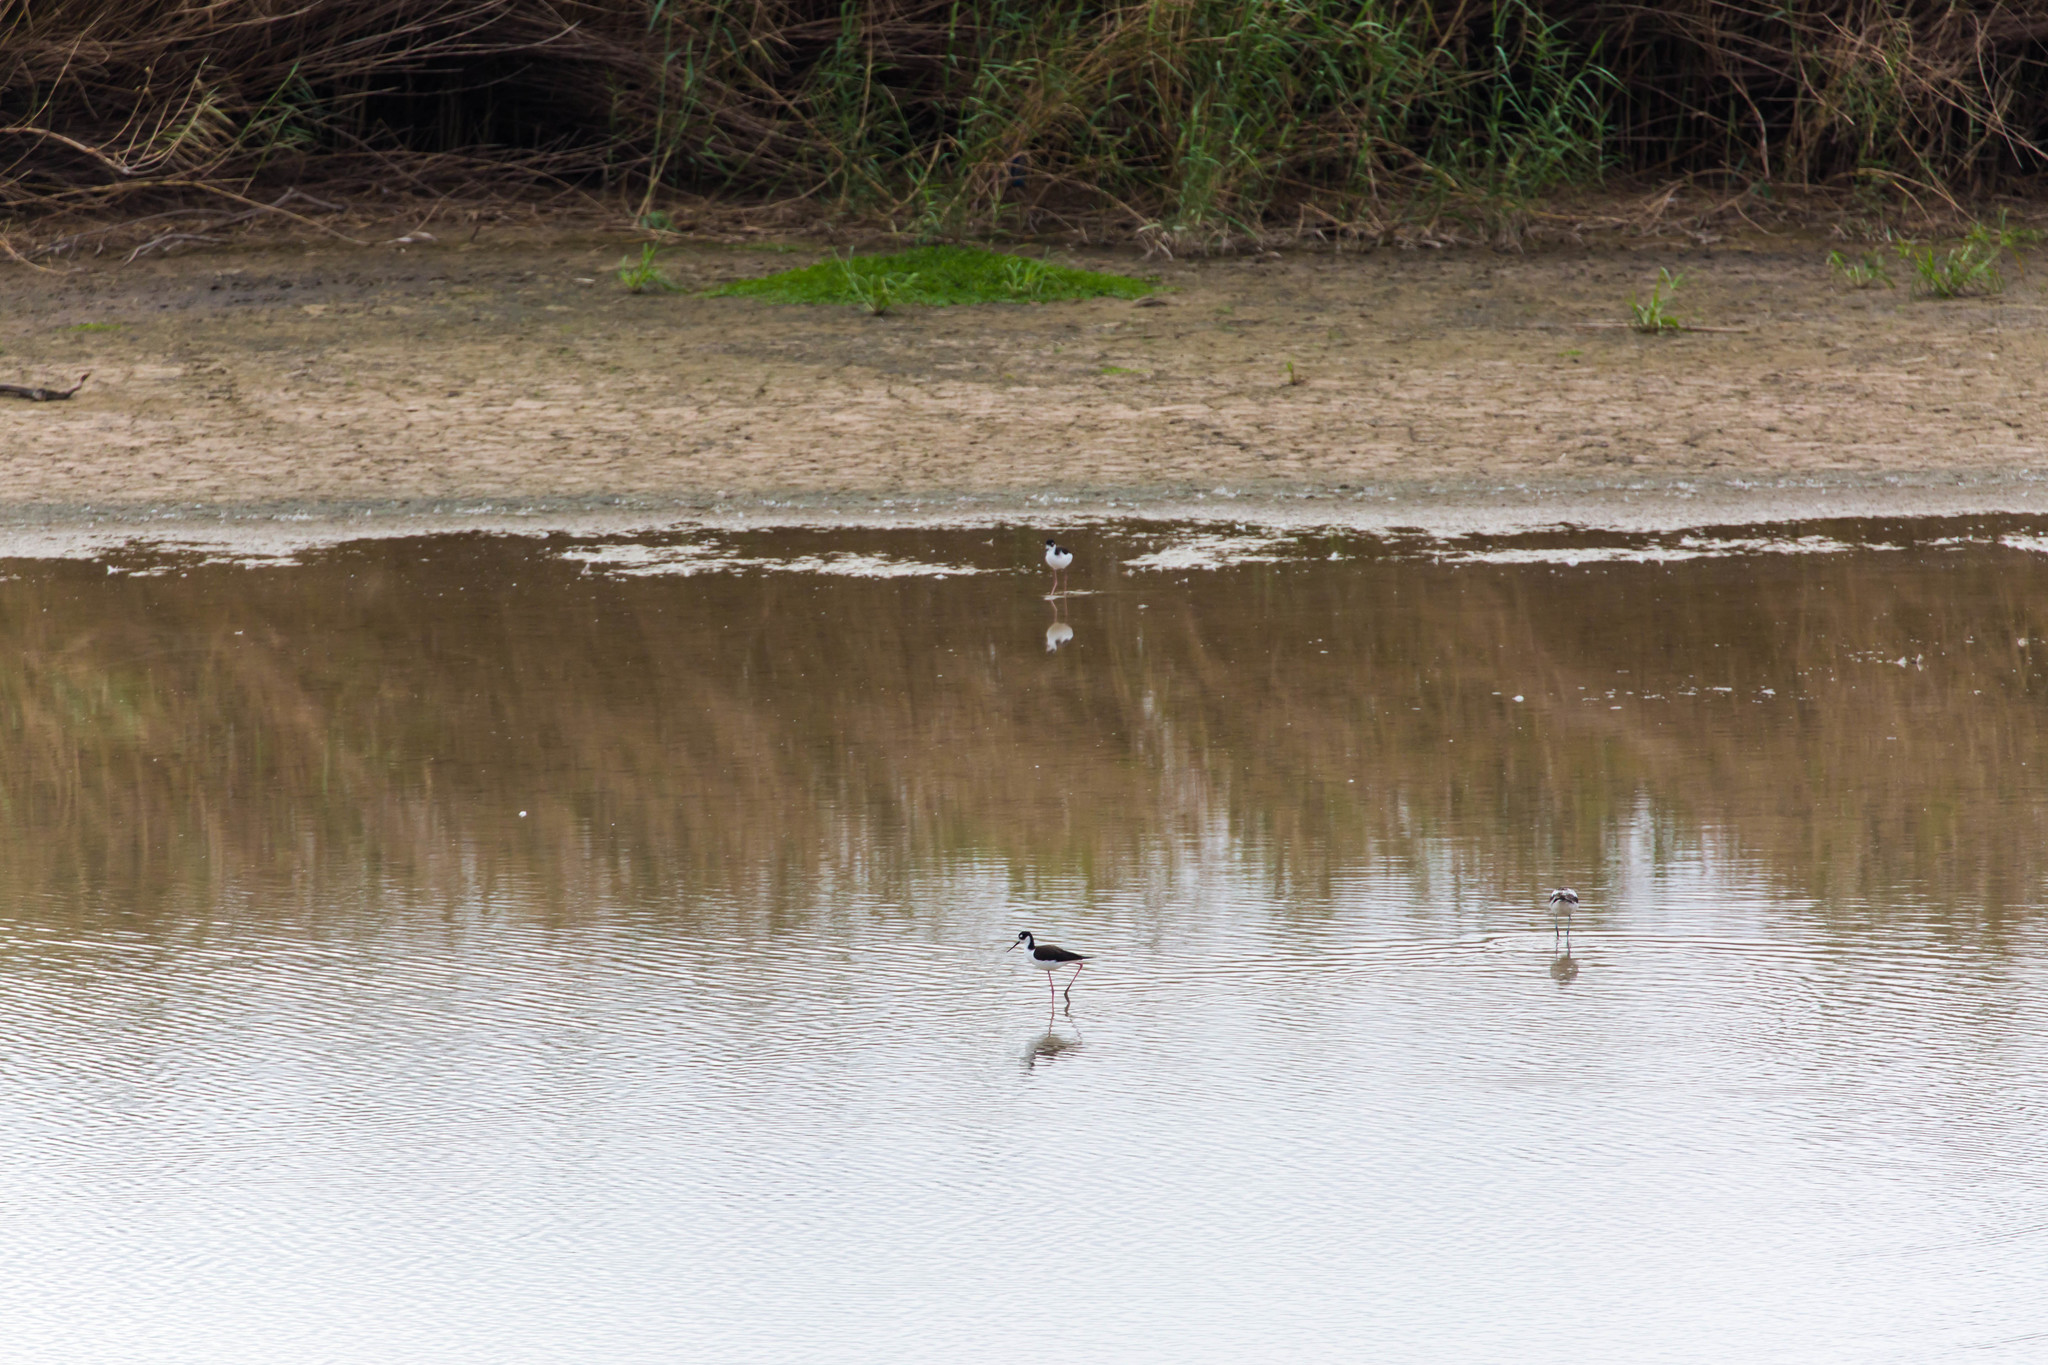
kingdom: Animalia
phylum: Chordata
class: Aves
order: Charadriiformes
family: Recurvirostridae
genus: Himantopus
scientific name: Himantopus mexicanus
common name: Black-necked stilt
